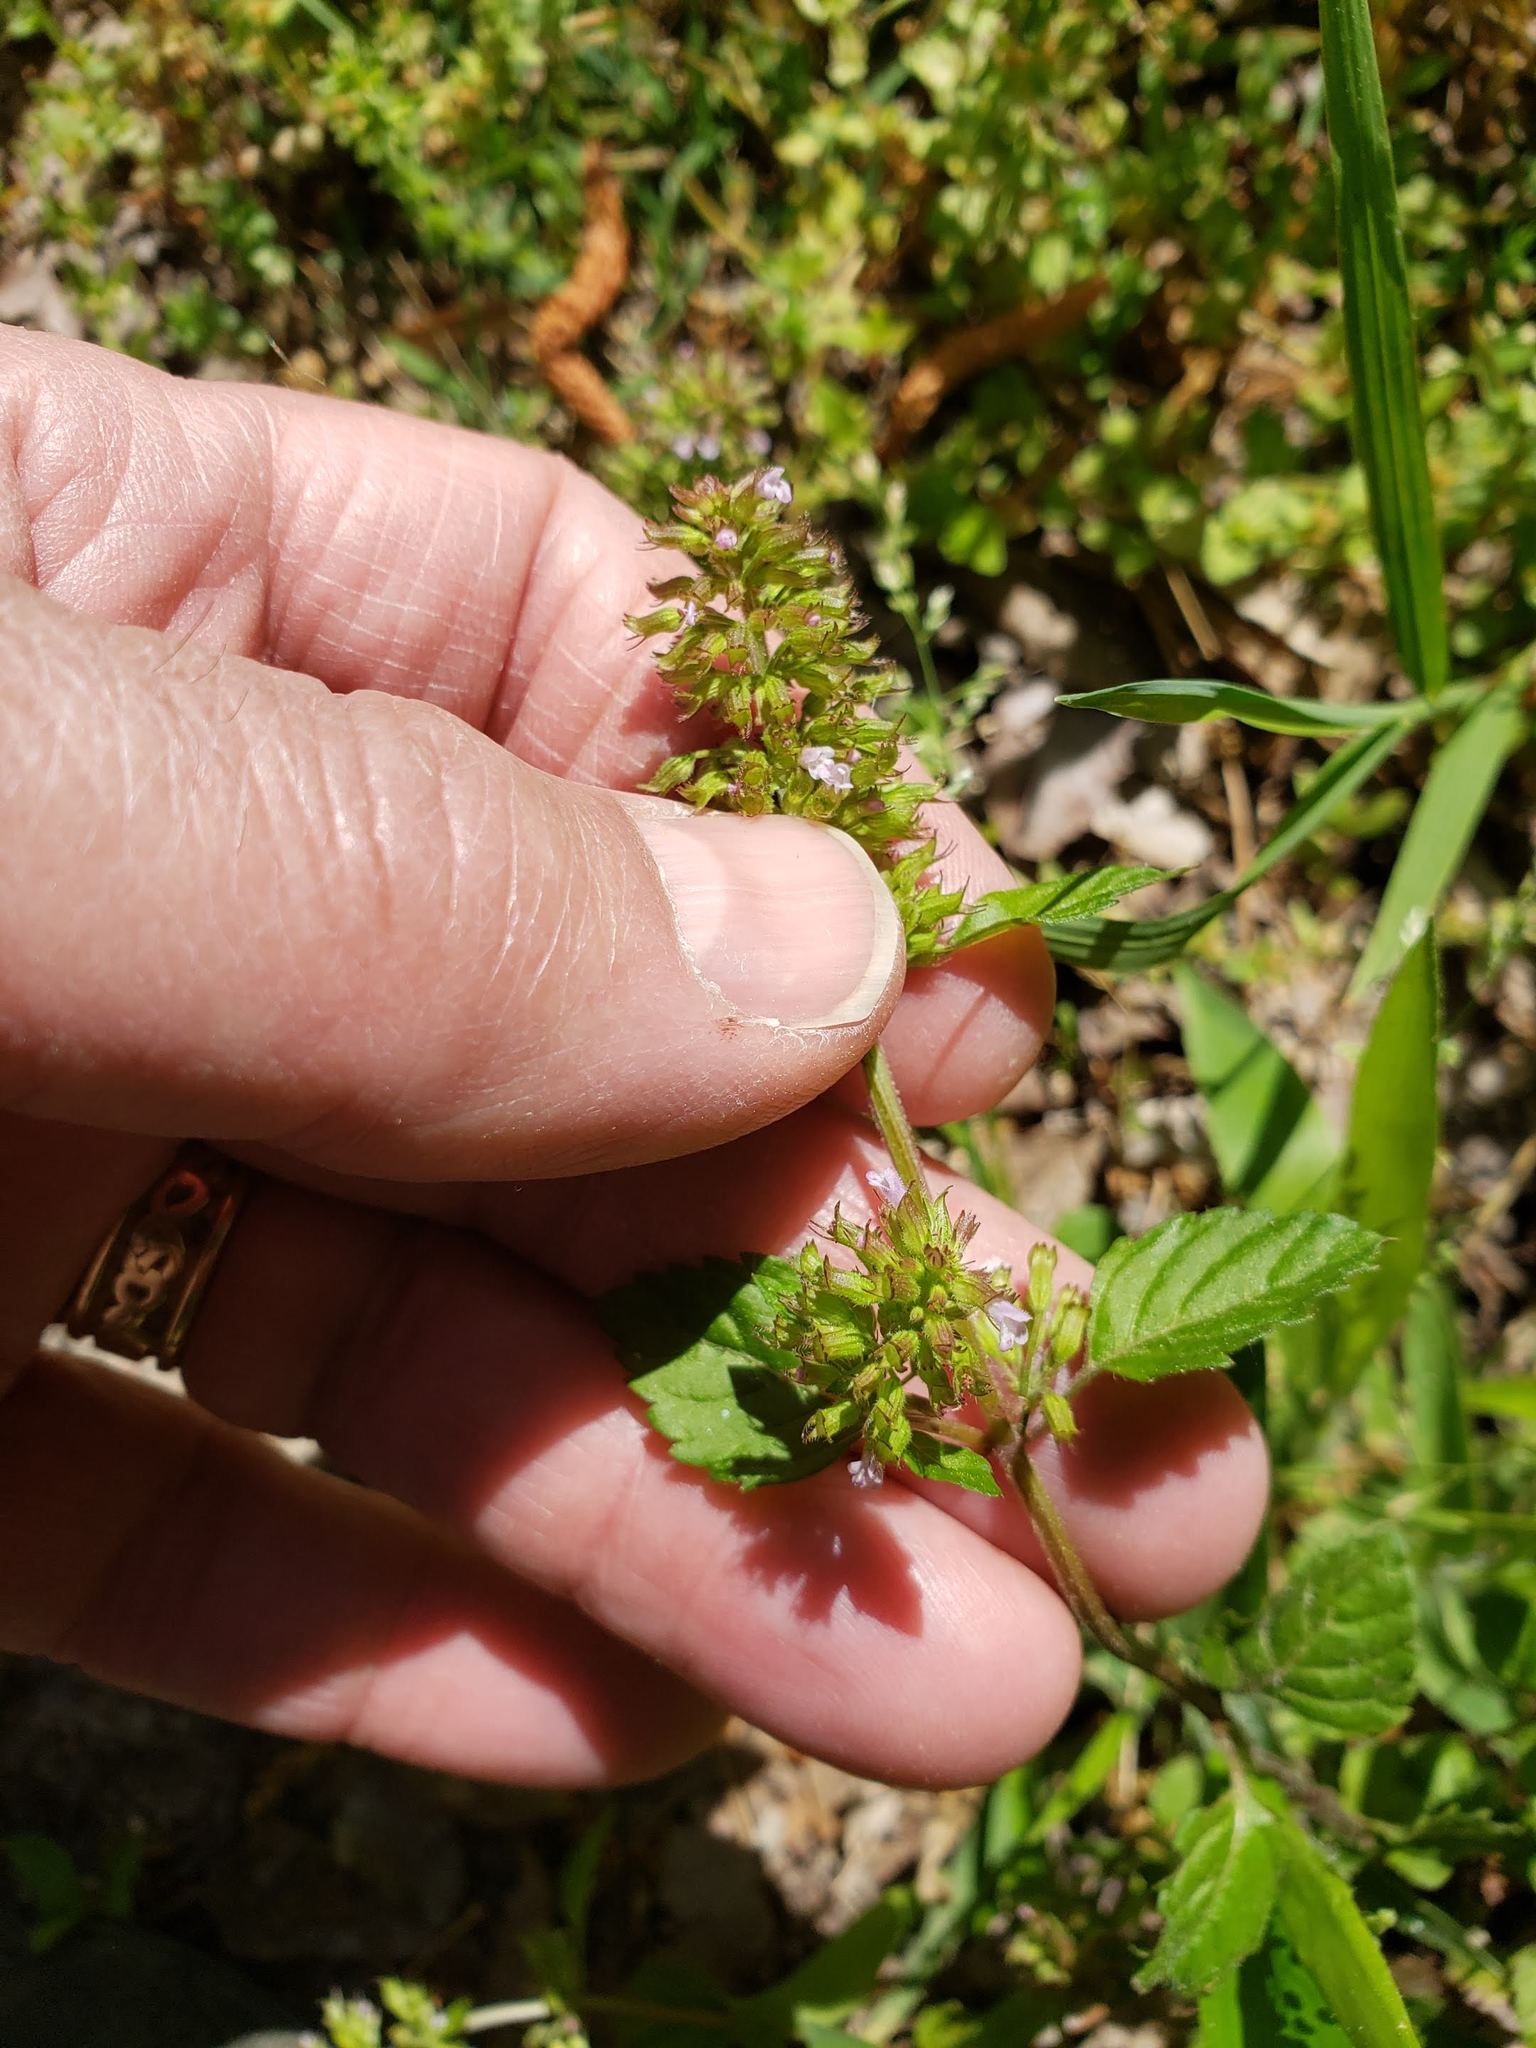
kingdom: Plantae
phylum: Tracheophyta
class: Magnoliopsida
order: Lamiales
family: Lamiaceae
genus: Clinopodium
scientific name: Clinopodium gracile
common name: Slender wild basil
